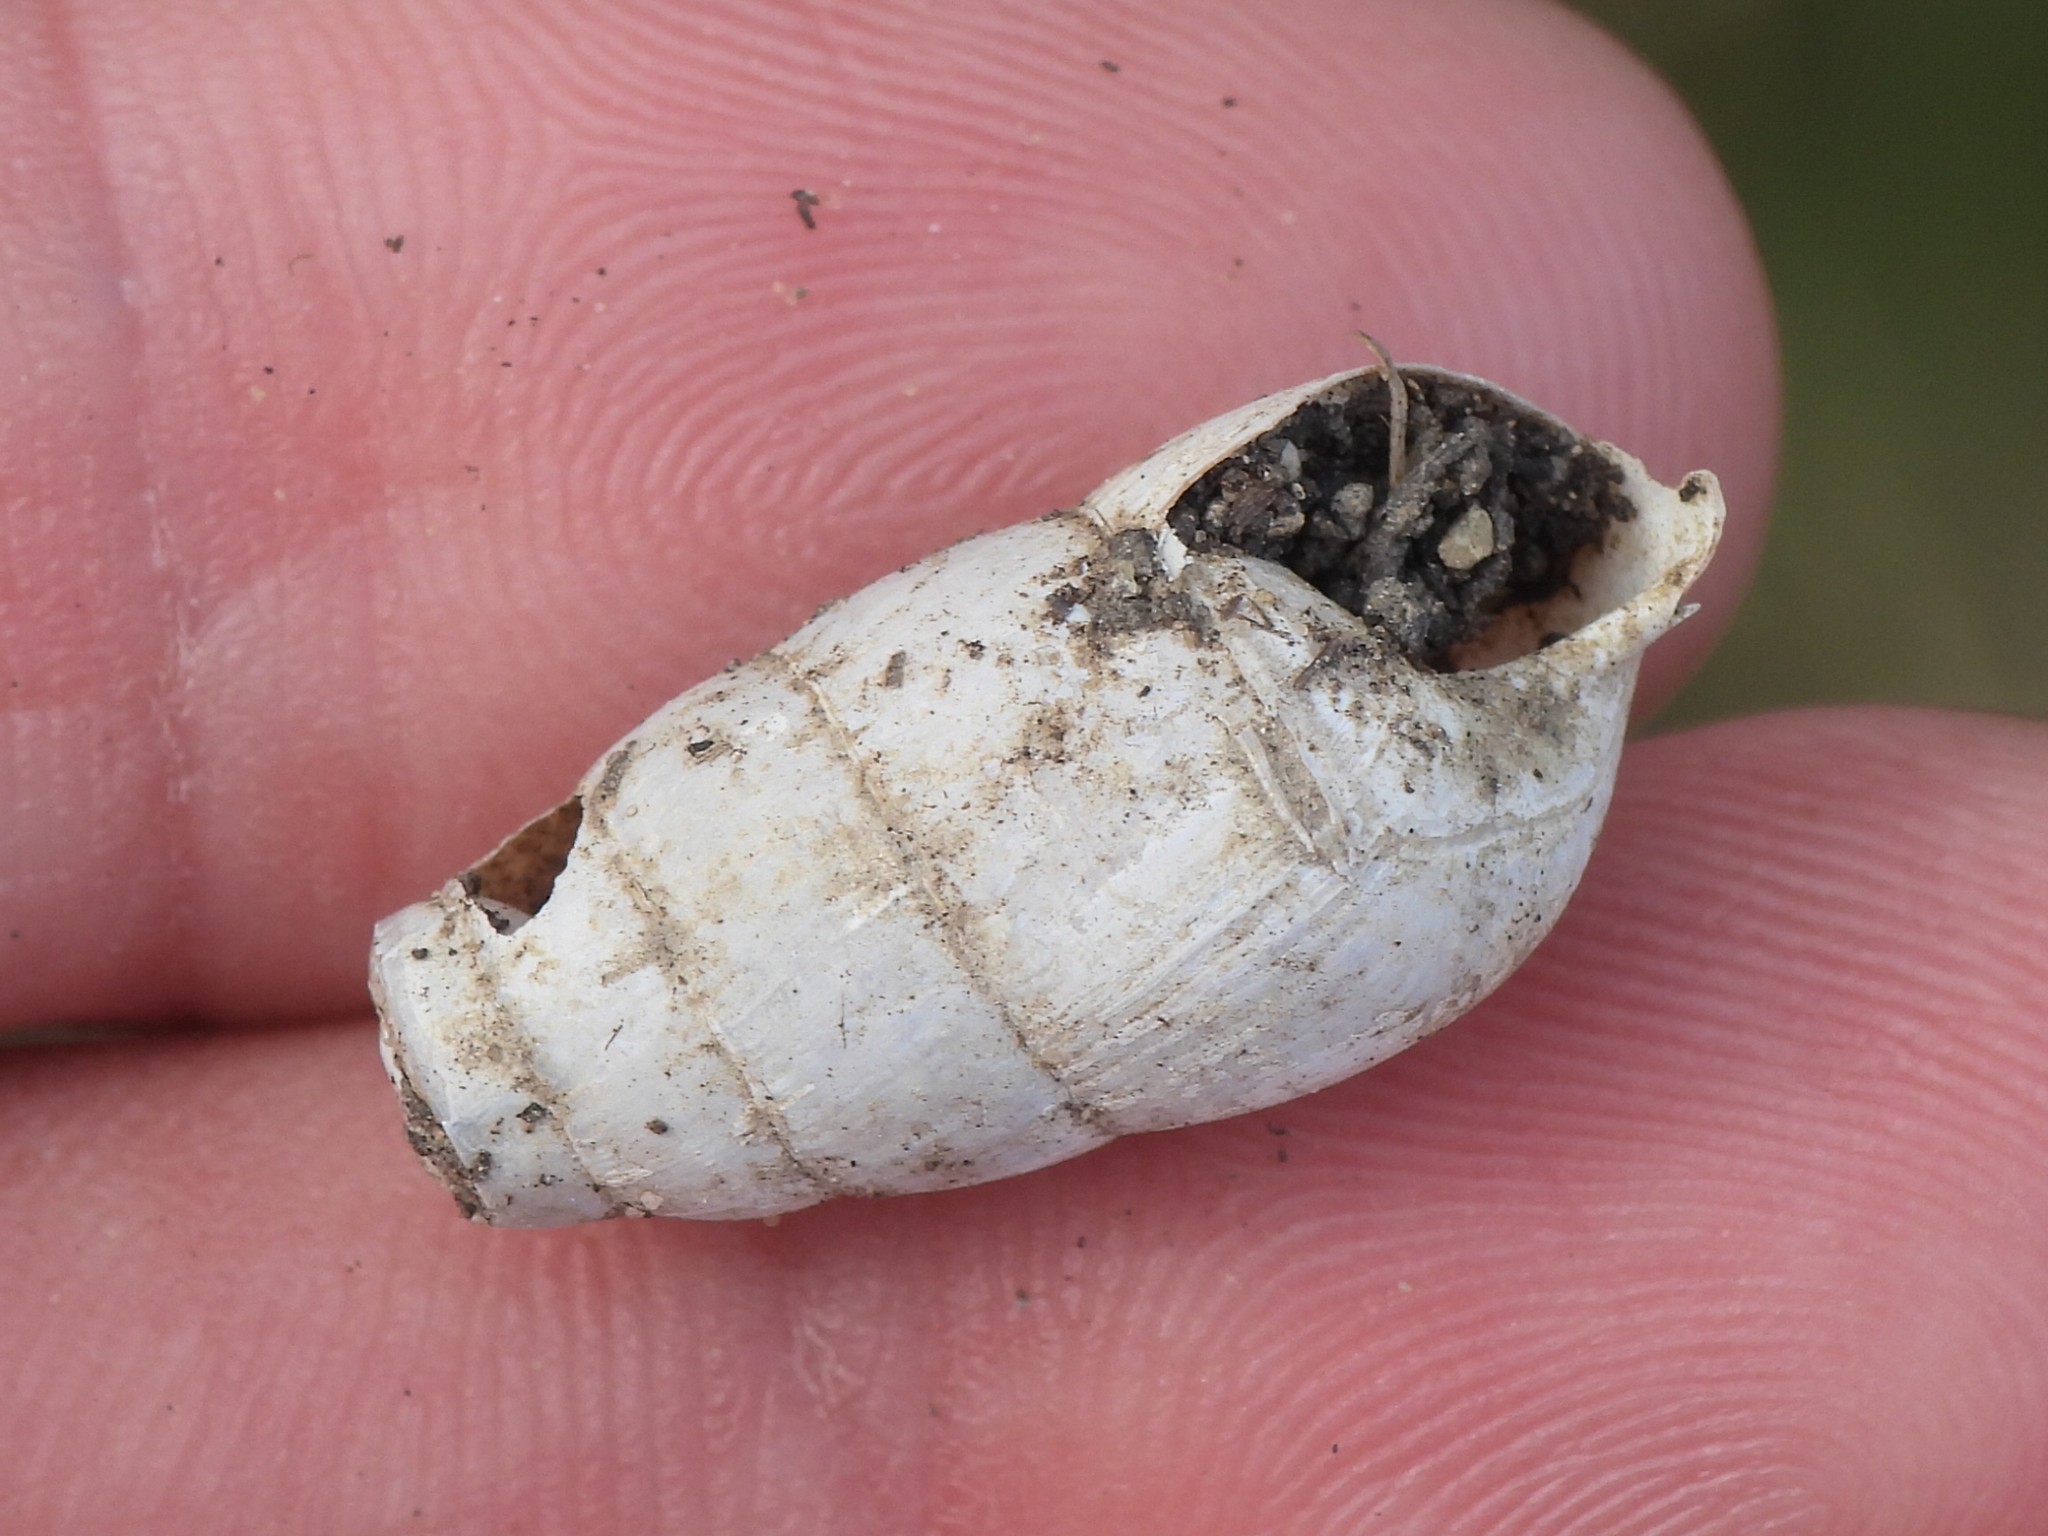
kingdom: Animalia
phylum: Mollusca
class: Gastropoda
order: Stylommatophora
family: Achatinidae
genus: Rumina
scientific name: Rumina decollata
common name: Decollate snail
